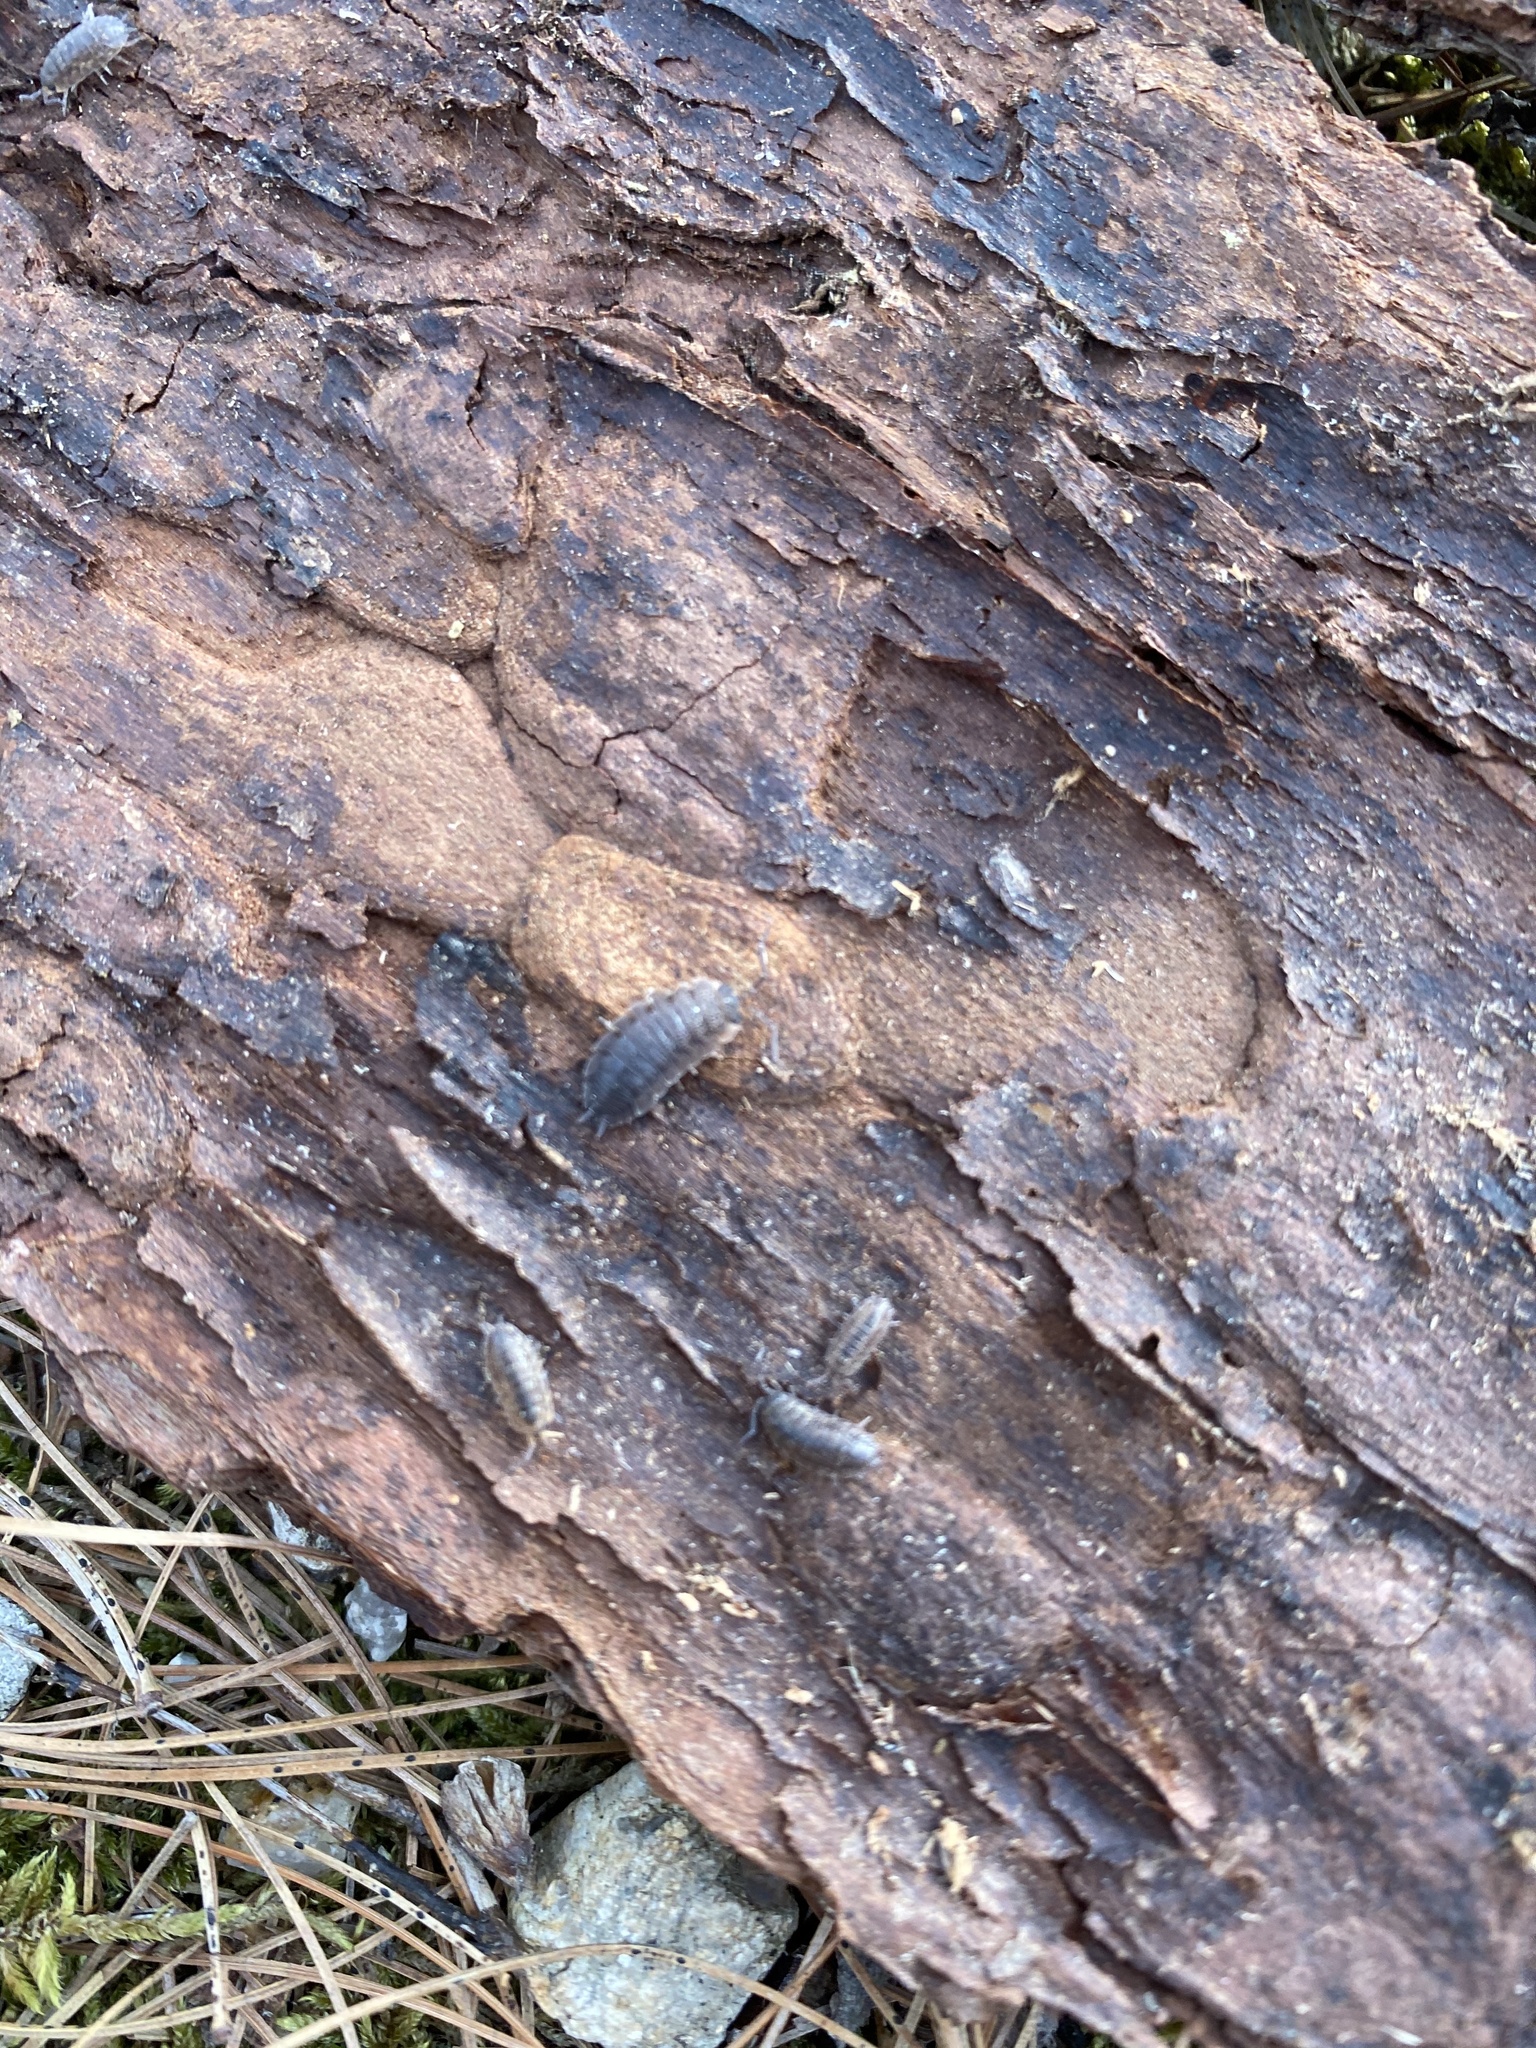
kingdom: Animalia
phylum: Arthropoda
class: Malacostraca
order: Isopoda
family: Porcellionidae
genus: Porcellio
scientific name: Porcellio scaber
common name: Common rough woodlouse
